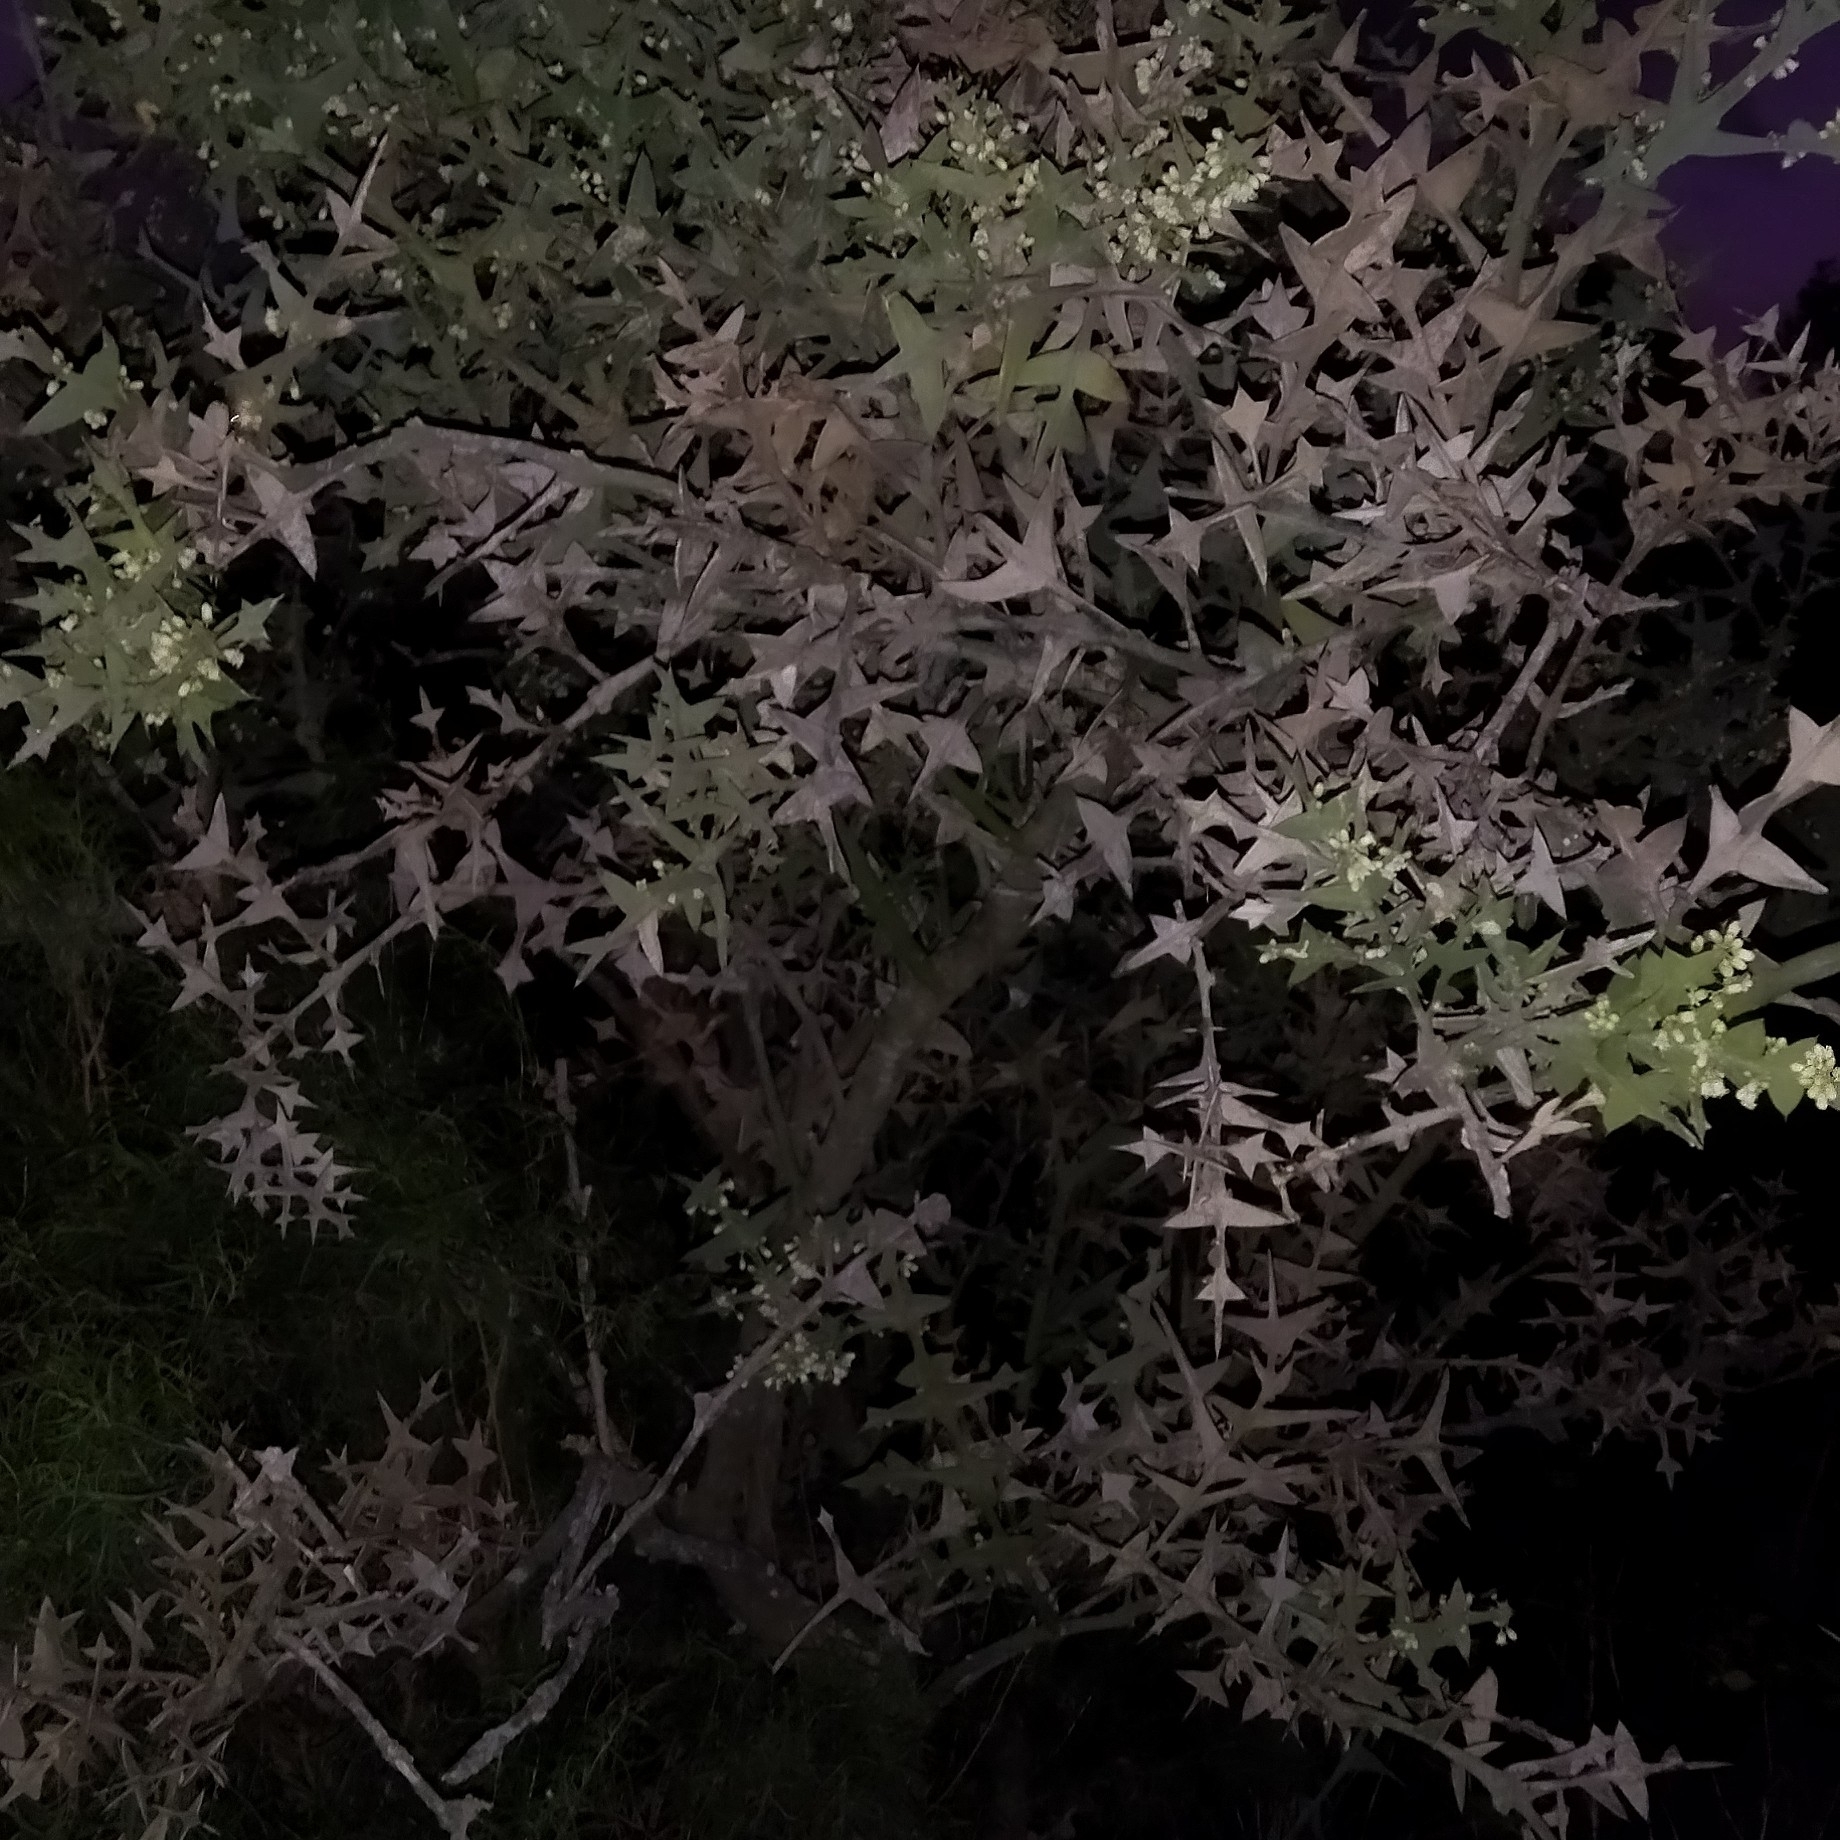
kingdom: Plantae
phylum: Tracheophyta
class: Magnoliopsida
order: Rosales
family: Rhamnaceae
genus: Colletia
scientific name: Colletia paradoxa
